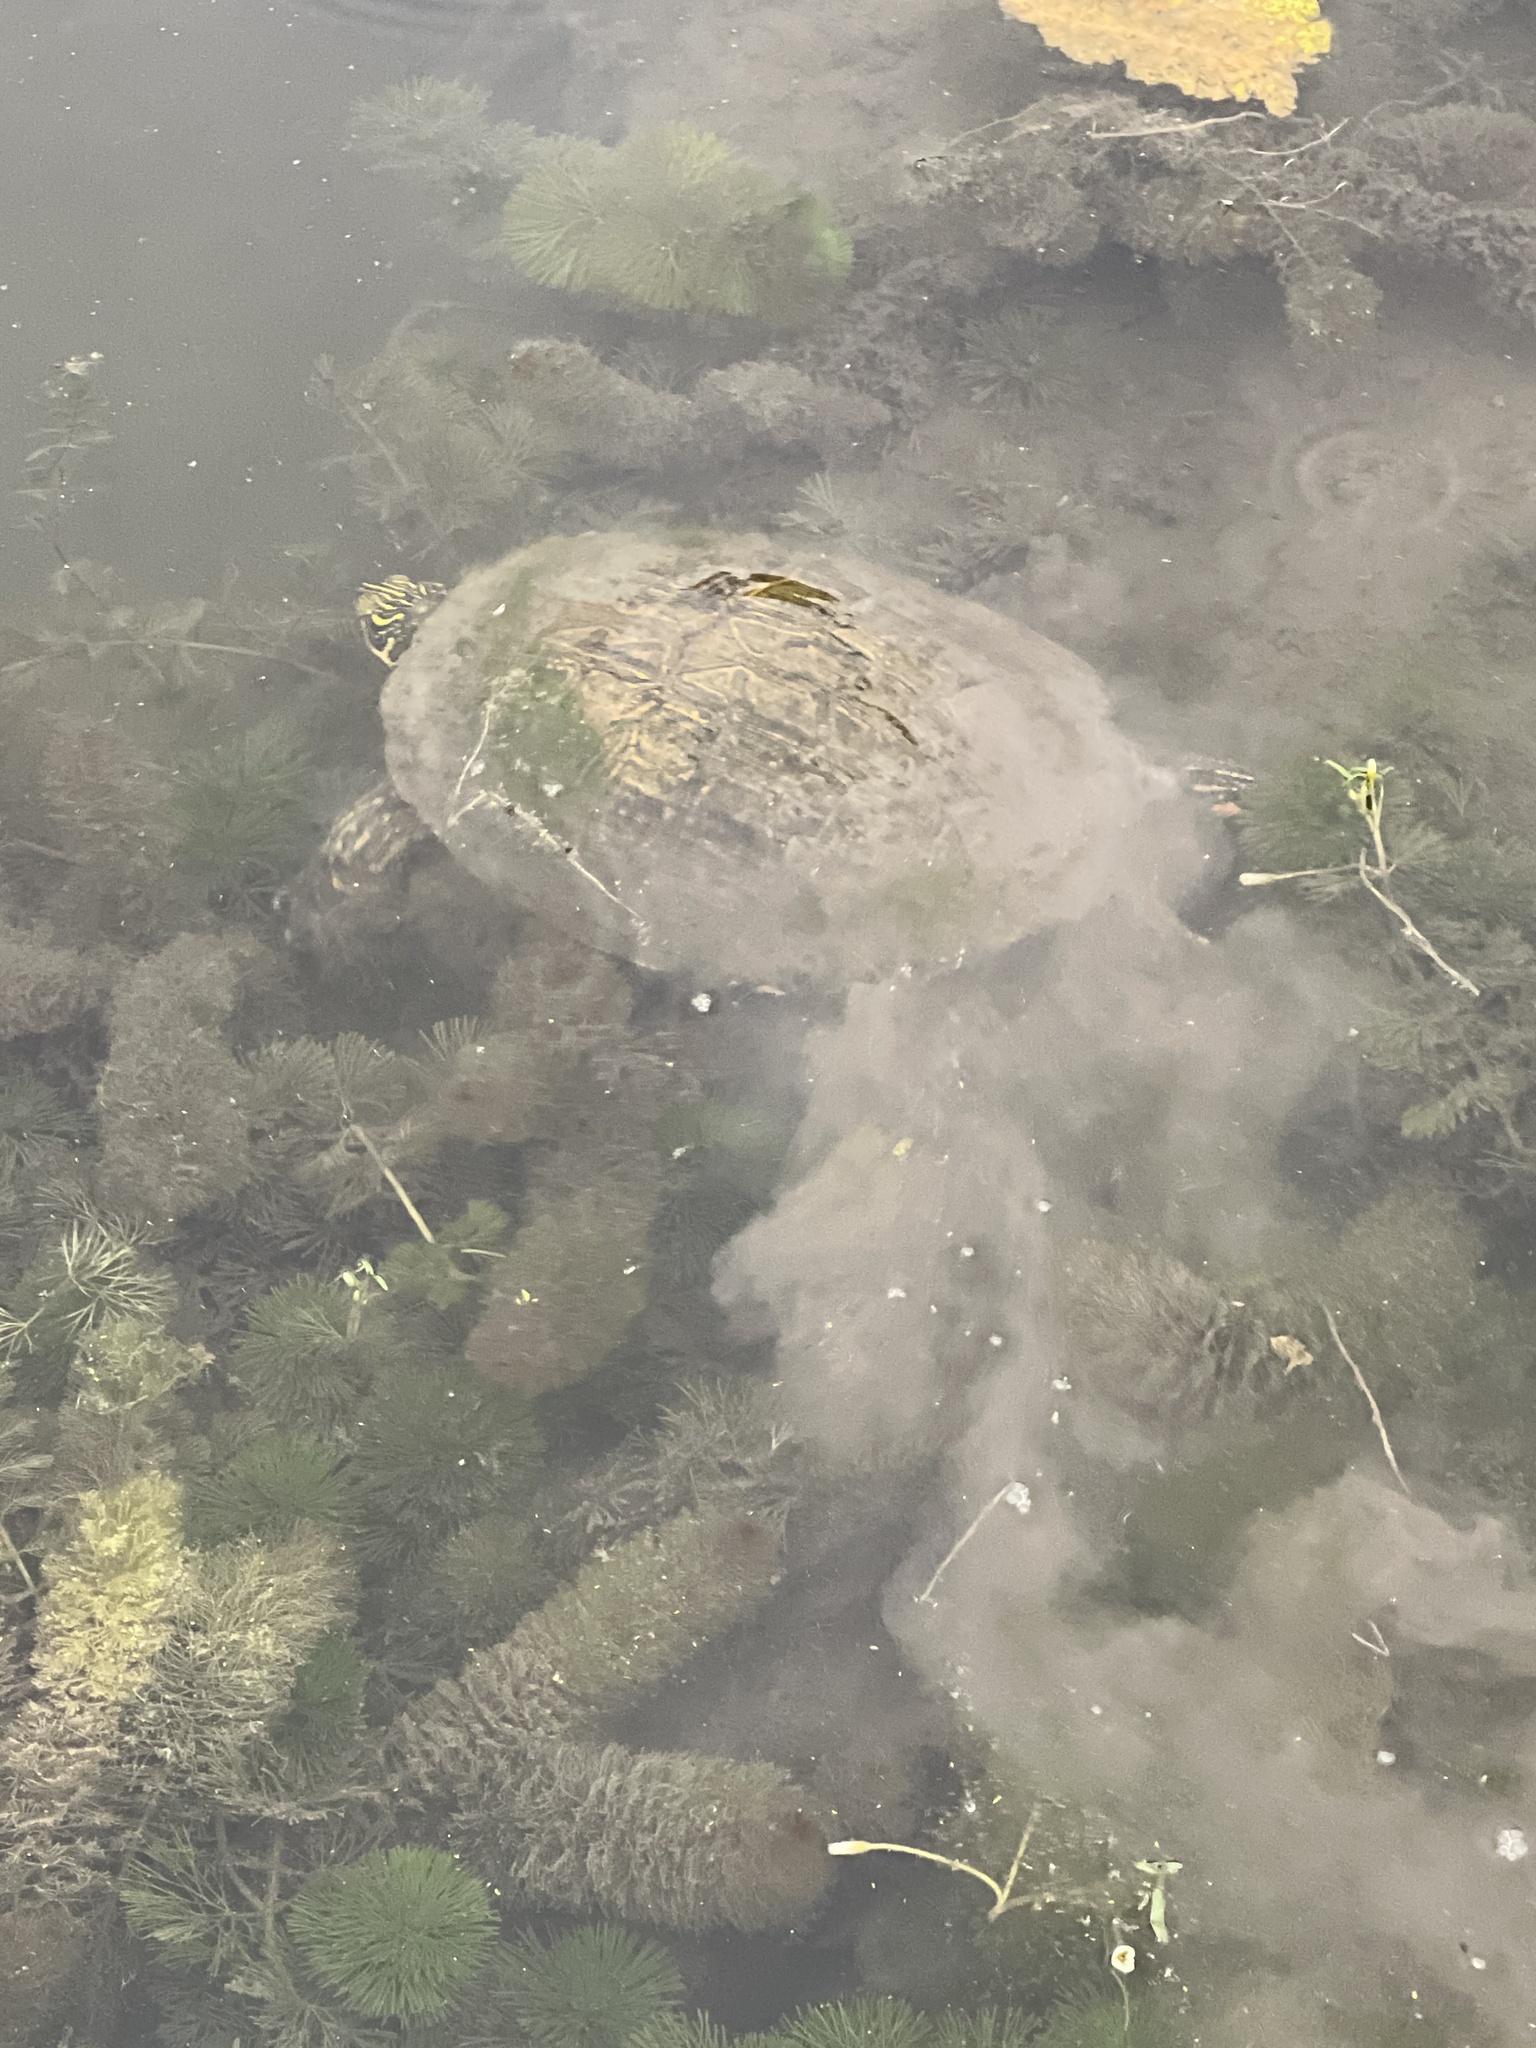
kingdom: Animalia
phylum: Chordata
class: Testudines
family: Emydidae
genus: Pseudemys
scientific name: Pseudemys texana
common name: Texas river cooter
